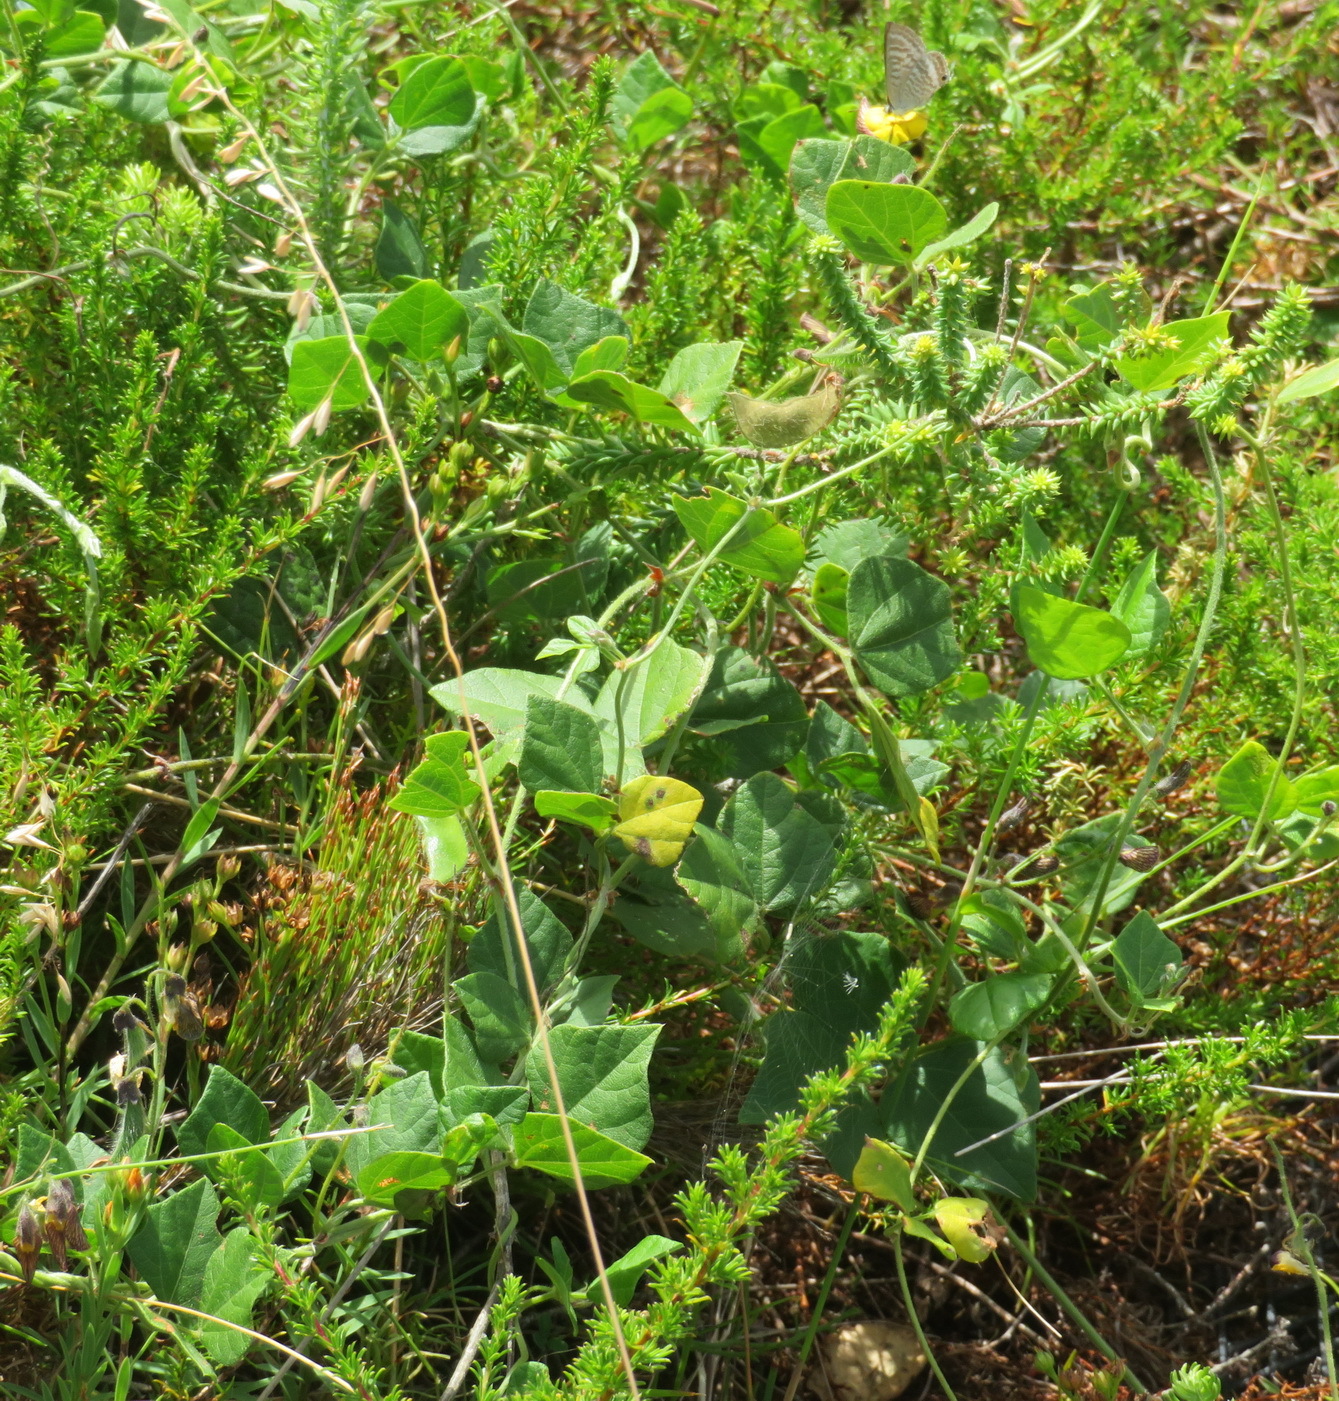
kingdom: Plantae
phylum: Tracheophyta
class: Magnoliopsida
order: Fabales
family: Fabaceae
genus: Rhynchosia
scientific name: Rhynchosia caribaea
